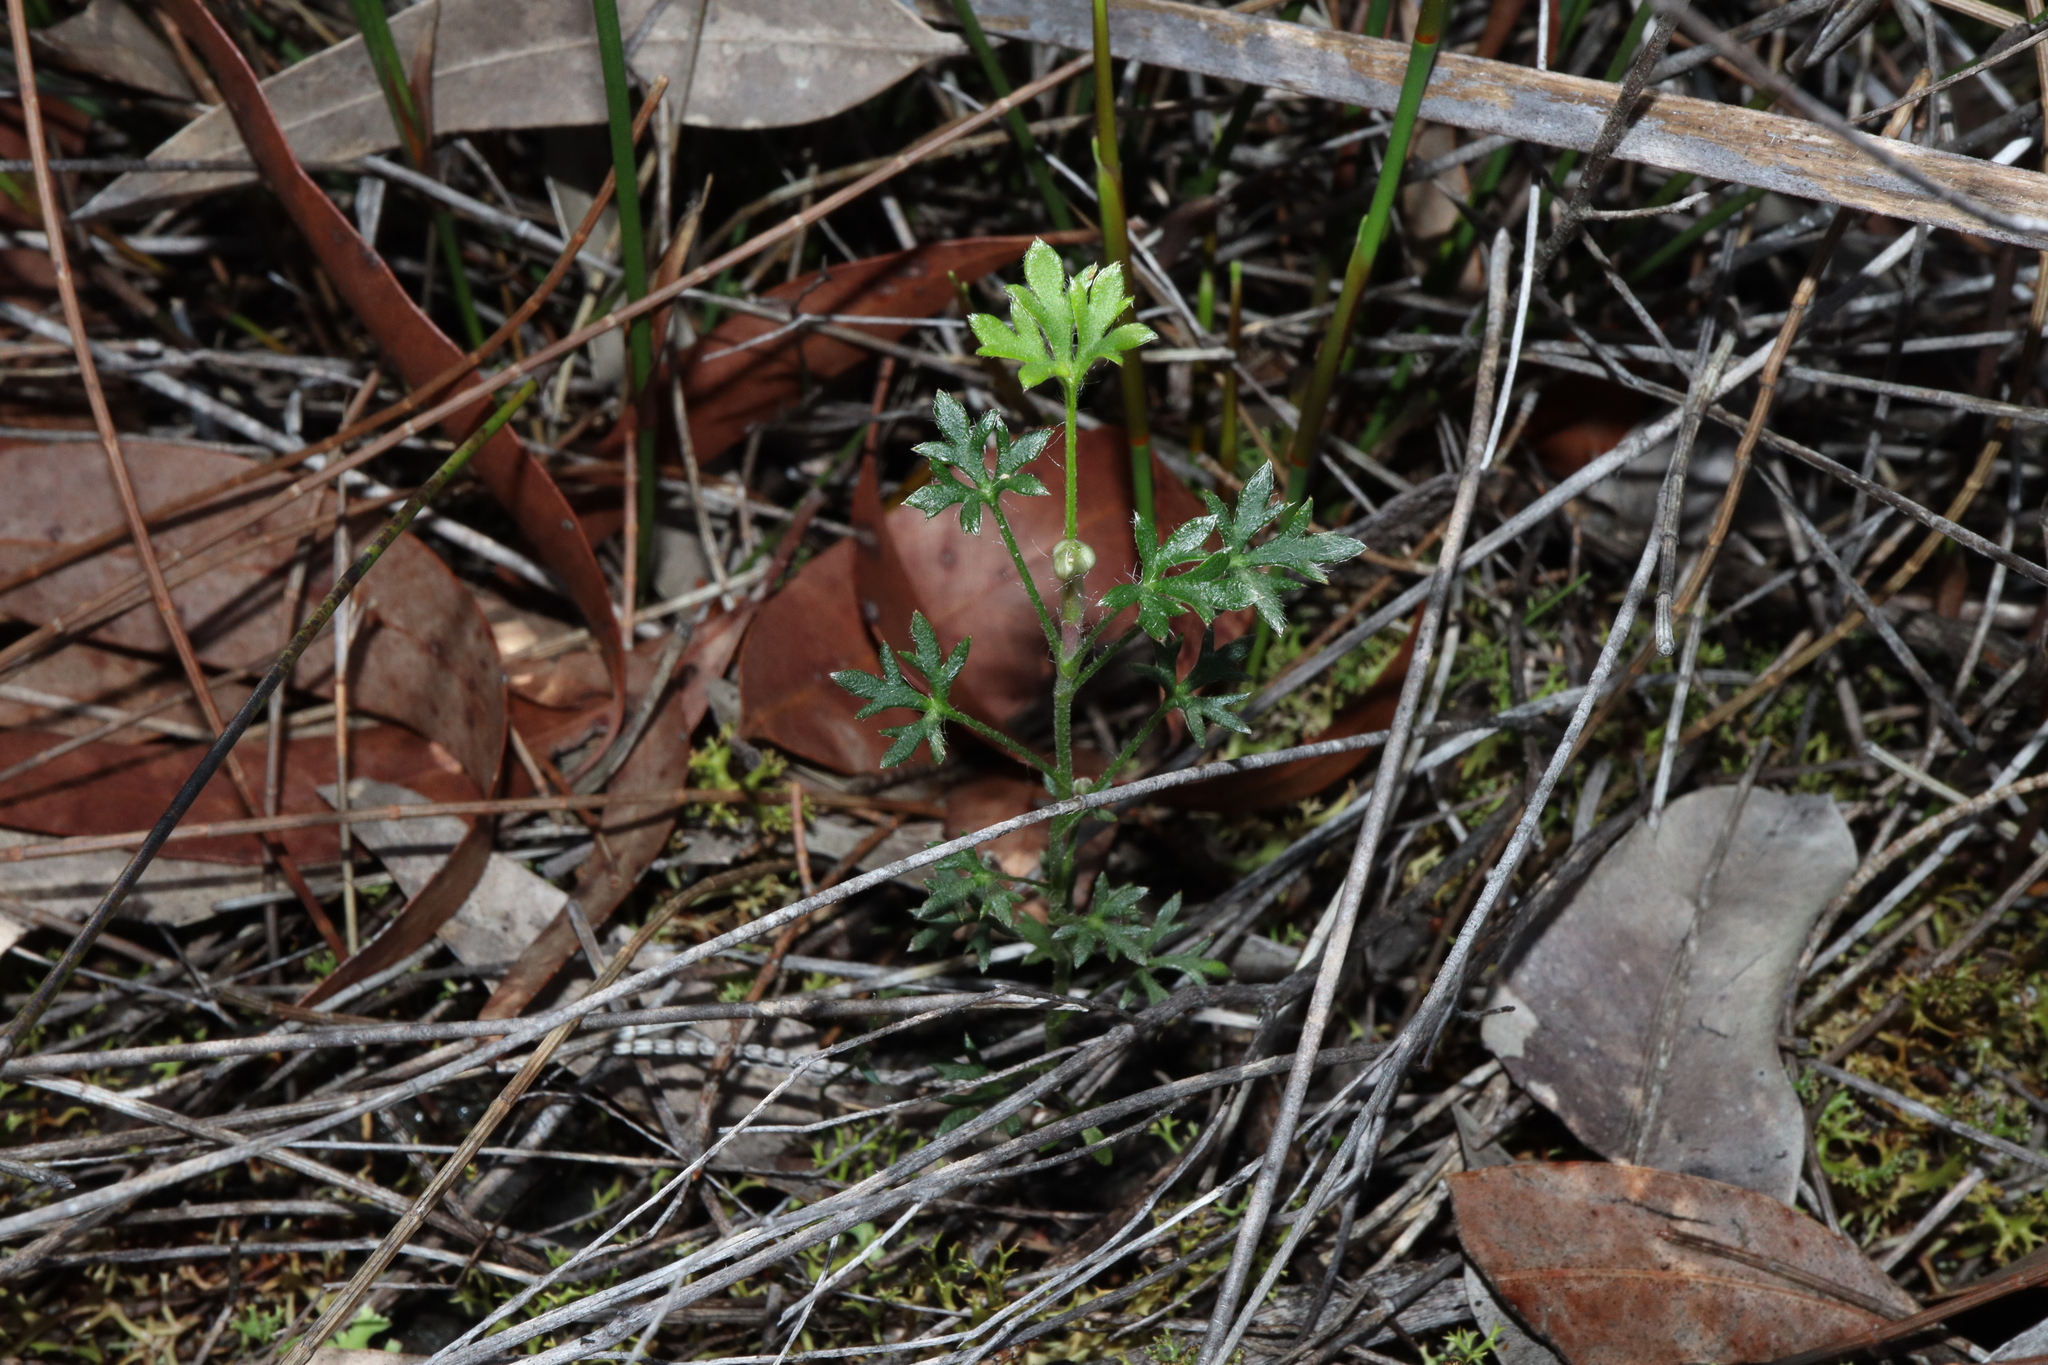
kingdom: Plantae
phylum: Tracheophyta
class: Magnoliopsida
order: Apiales
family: Apiaceae
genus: Actinotus
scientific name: Actinotus minor
